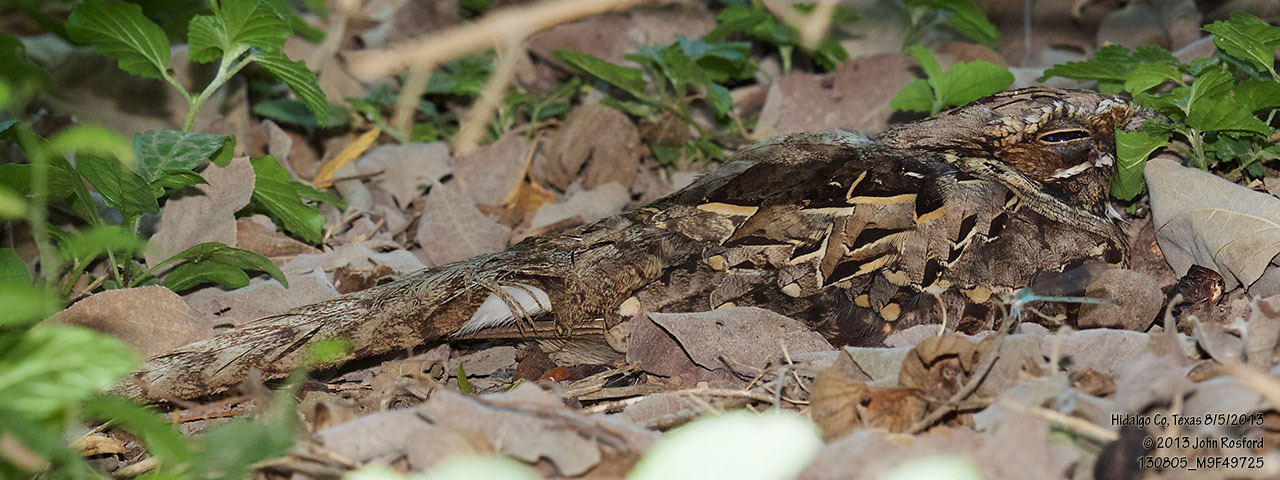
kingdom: Animalia
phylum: Chordata
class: Aves
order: Caprimulgiformes
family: Caprimulgidae
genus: Nyctidromus
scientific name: Nyctidromus albicollis
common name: Pauraque
